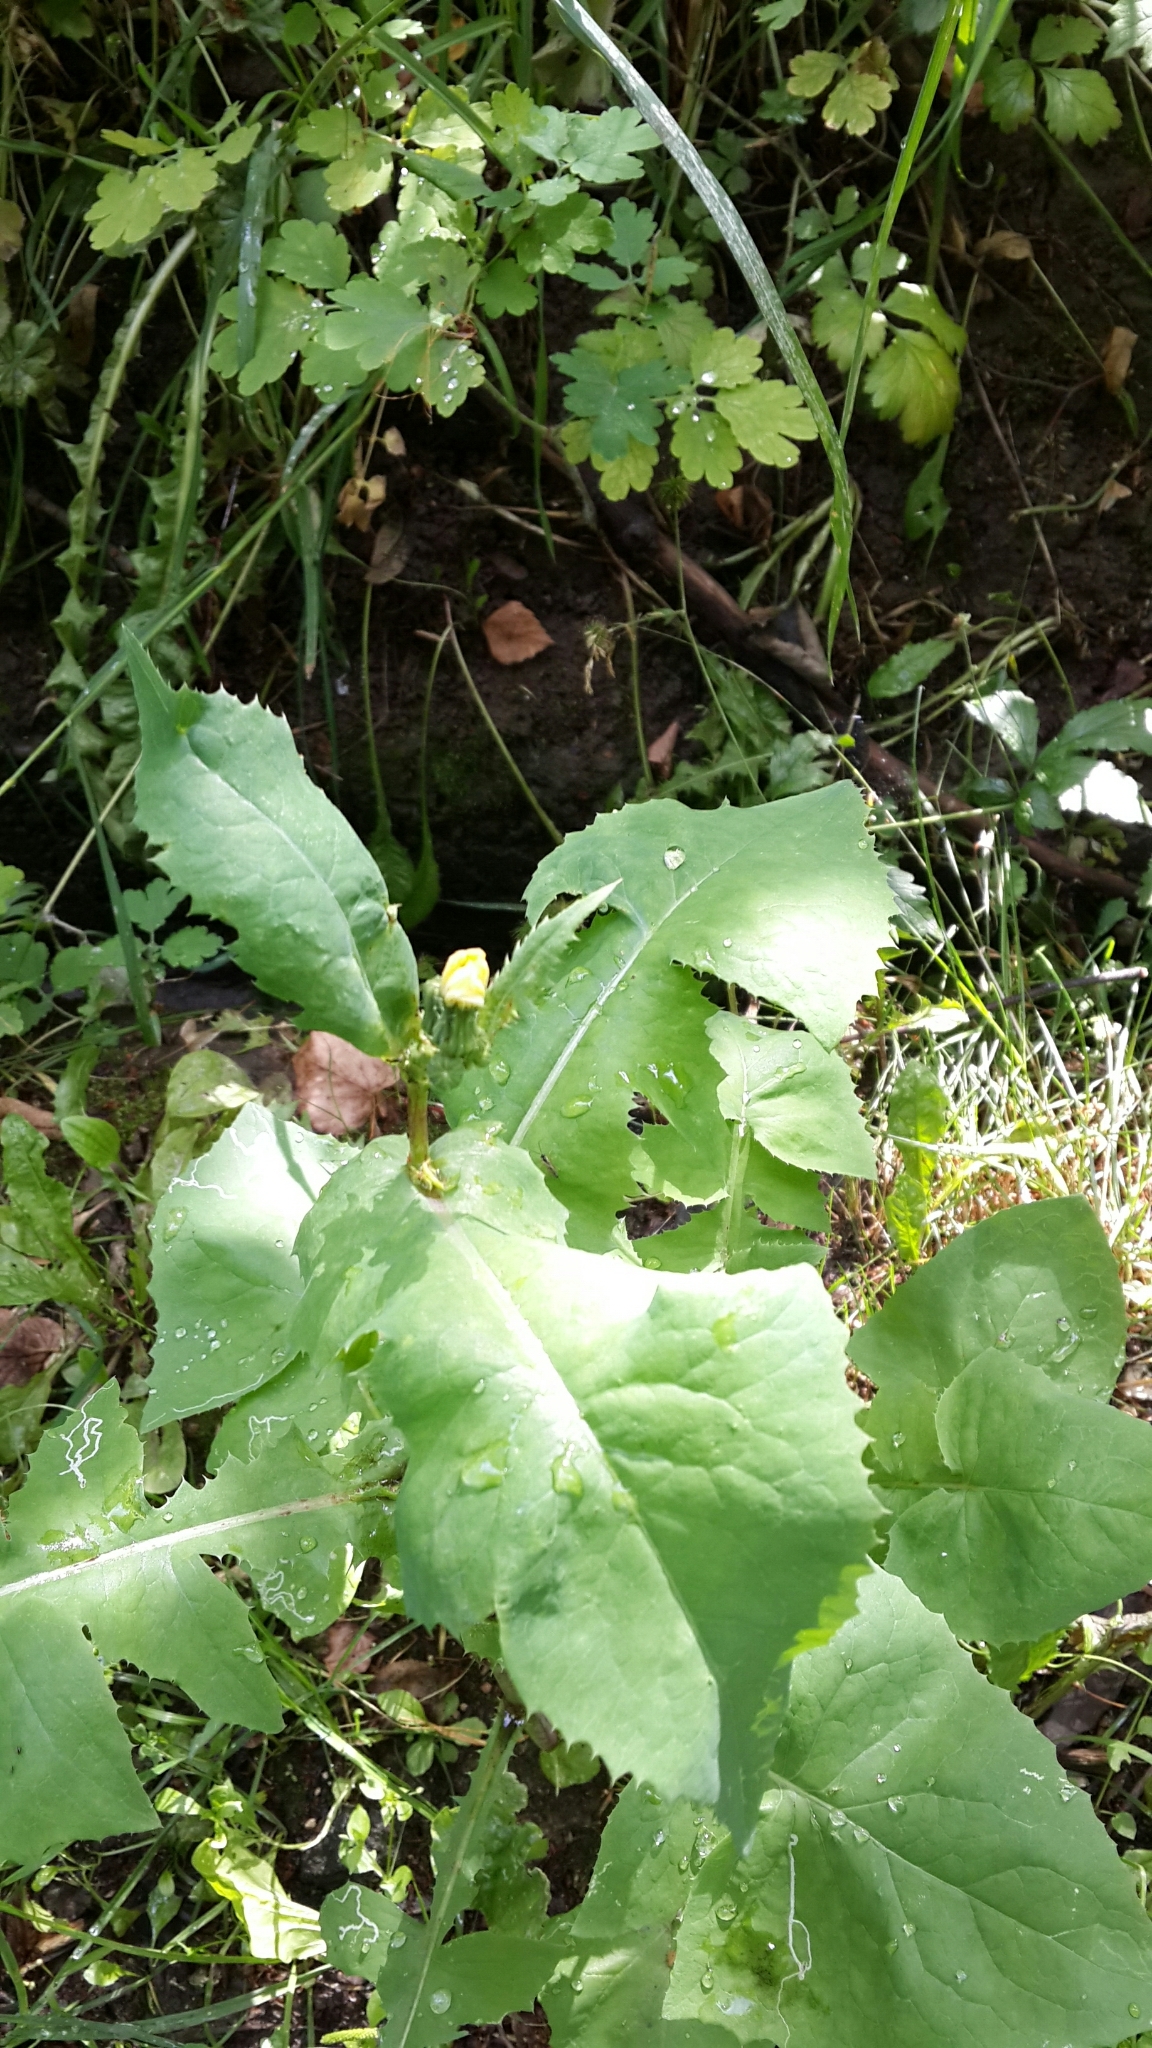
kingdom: Plantae
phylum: Tracheophyta
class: Magnoliopsida
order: Asterales
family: Asteraceae
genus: Sonchus
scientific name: Sonchus oleraceus
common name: Common sowthistle
